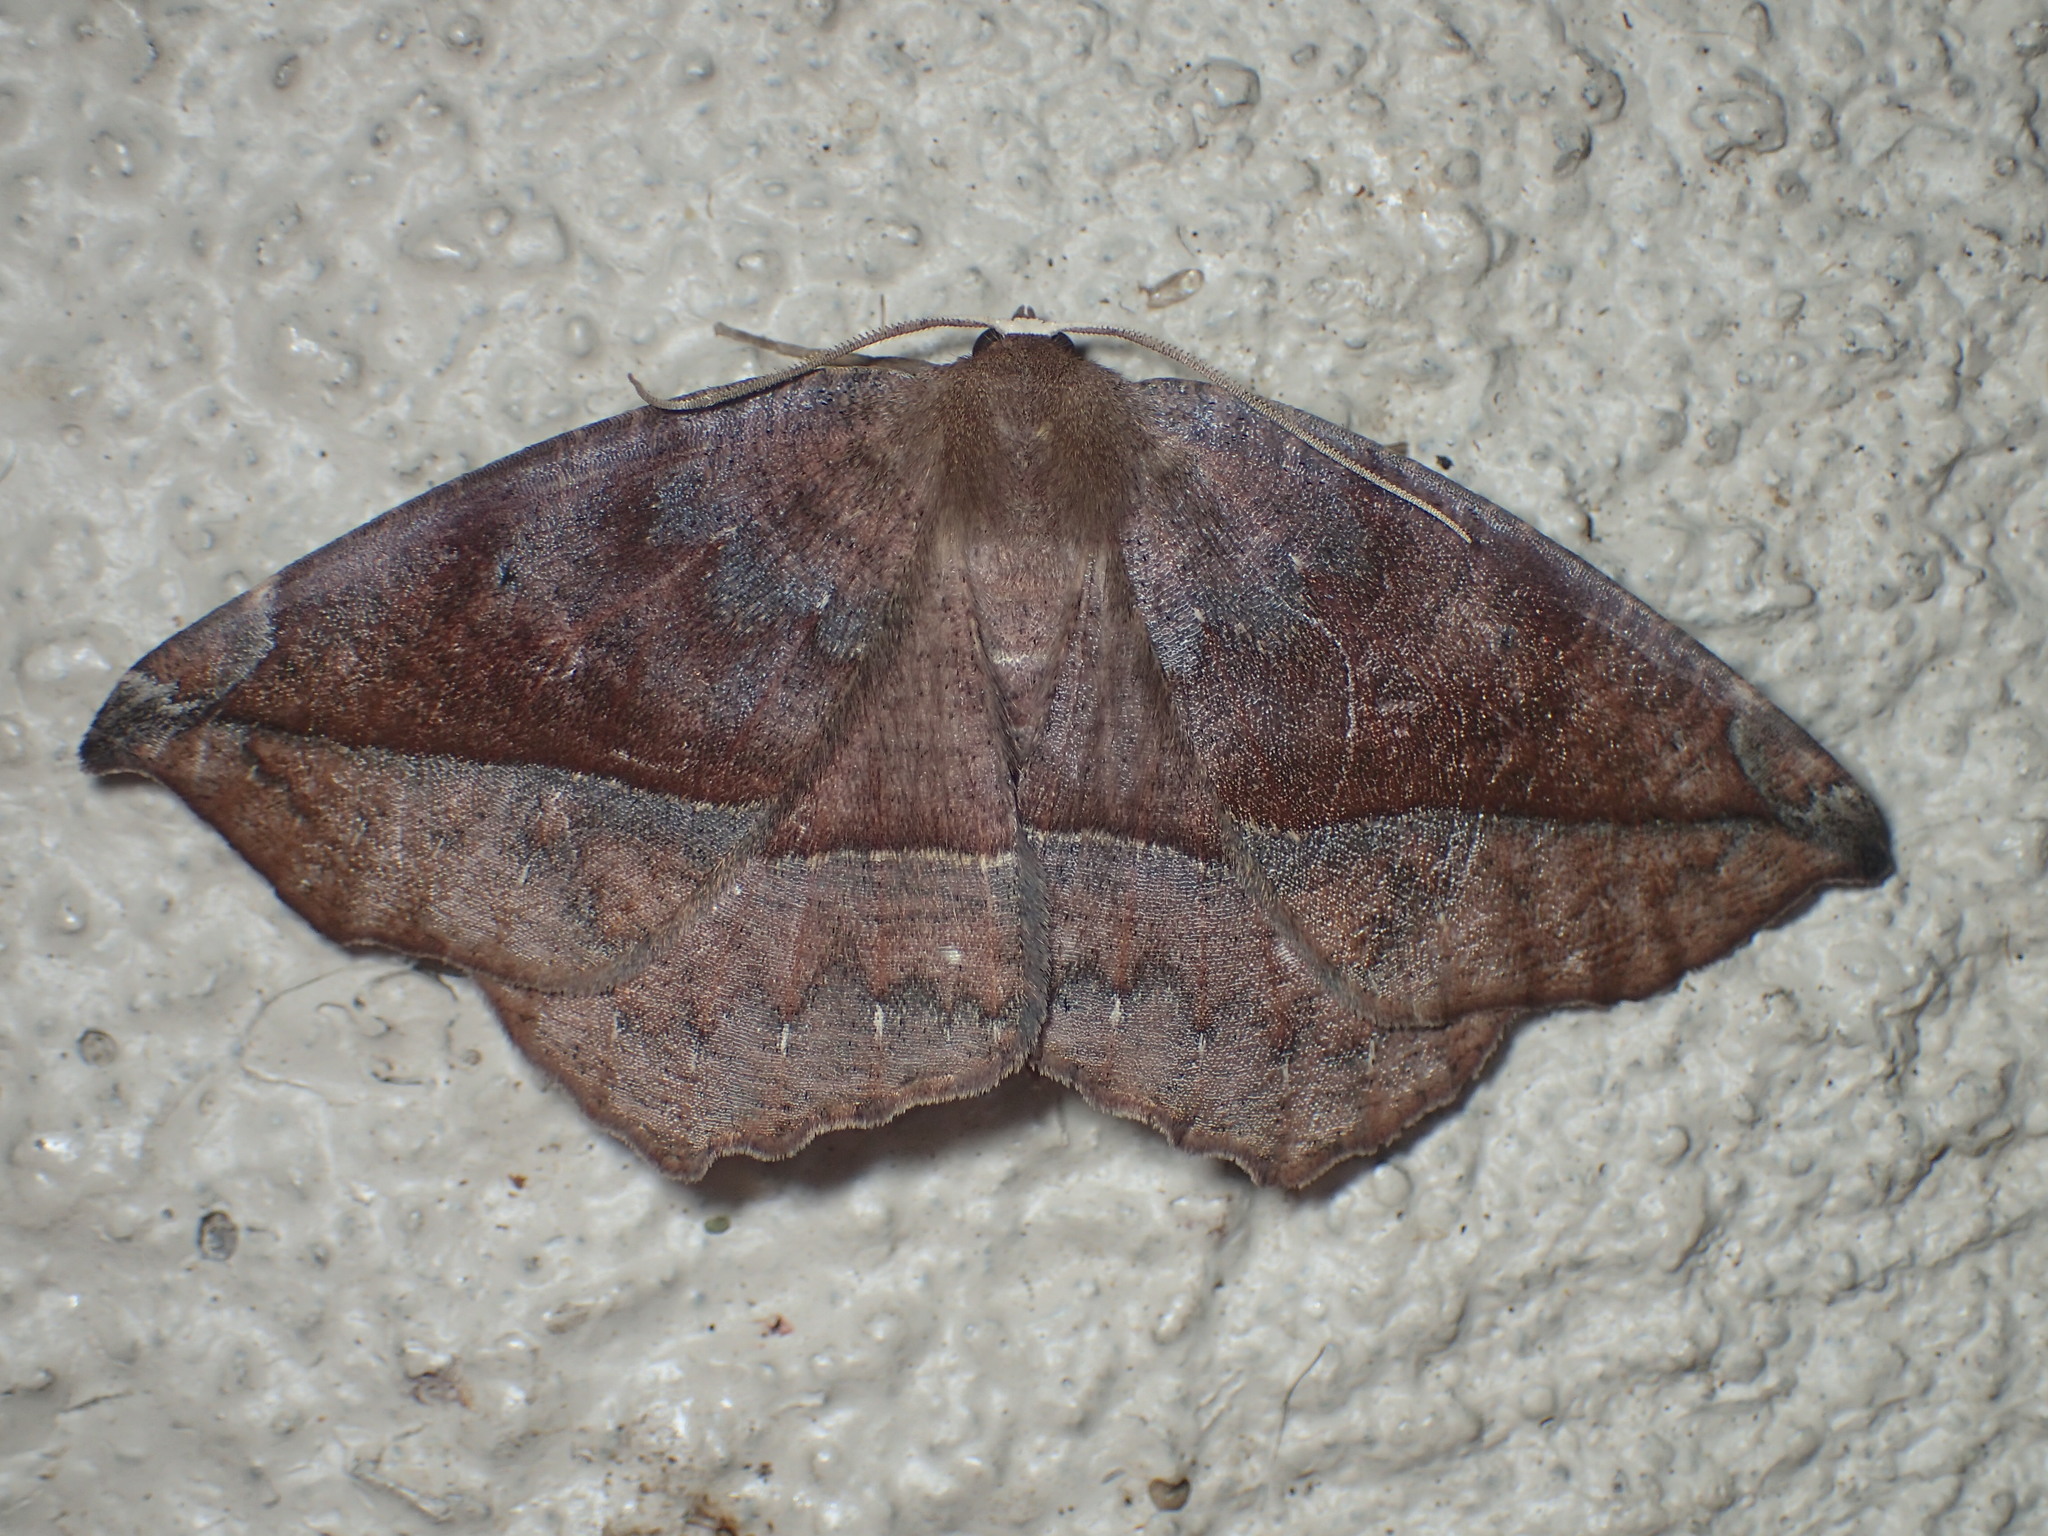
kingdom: Animalia
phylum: Arthropoda
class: Insecta
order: Lepidoptera
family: Geometridae
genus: Eutrapela
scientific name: Eutrapela clemataria
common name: Curved-toothed geometer
